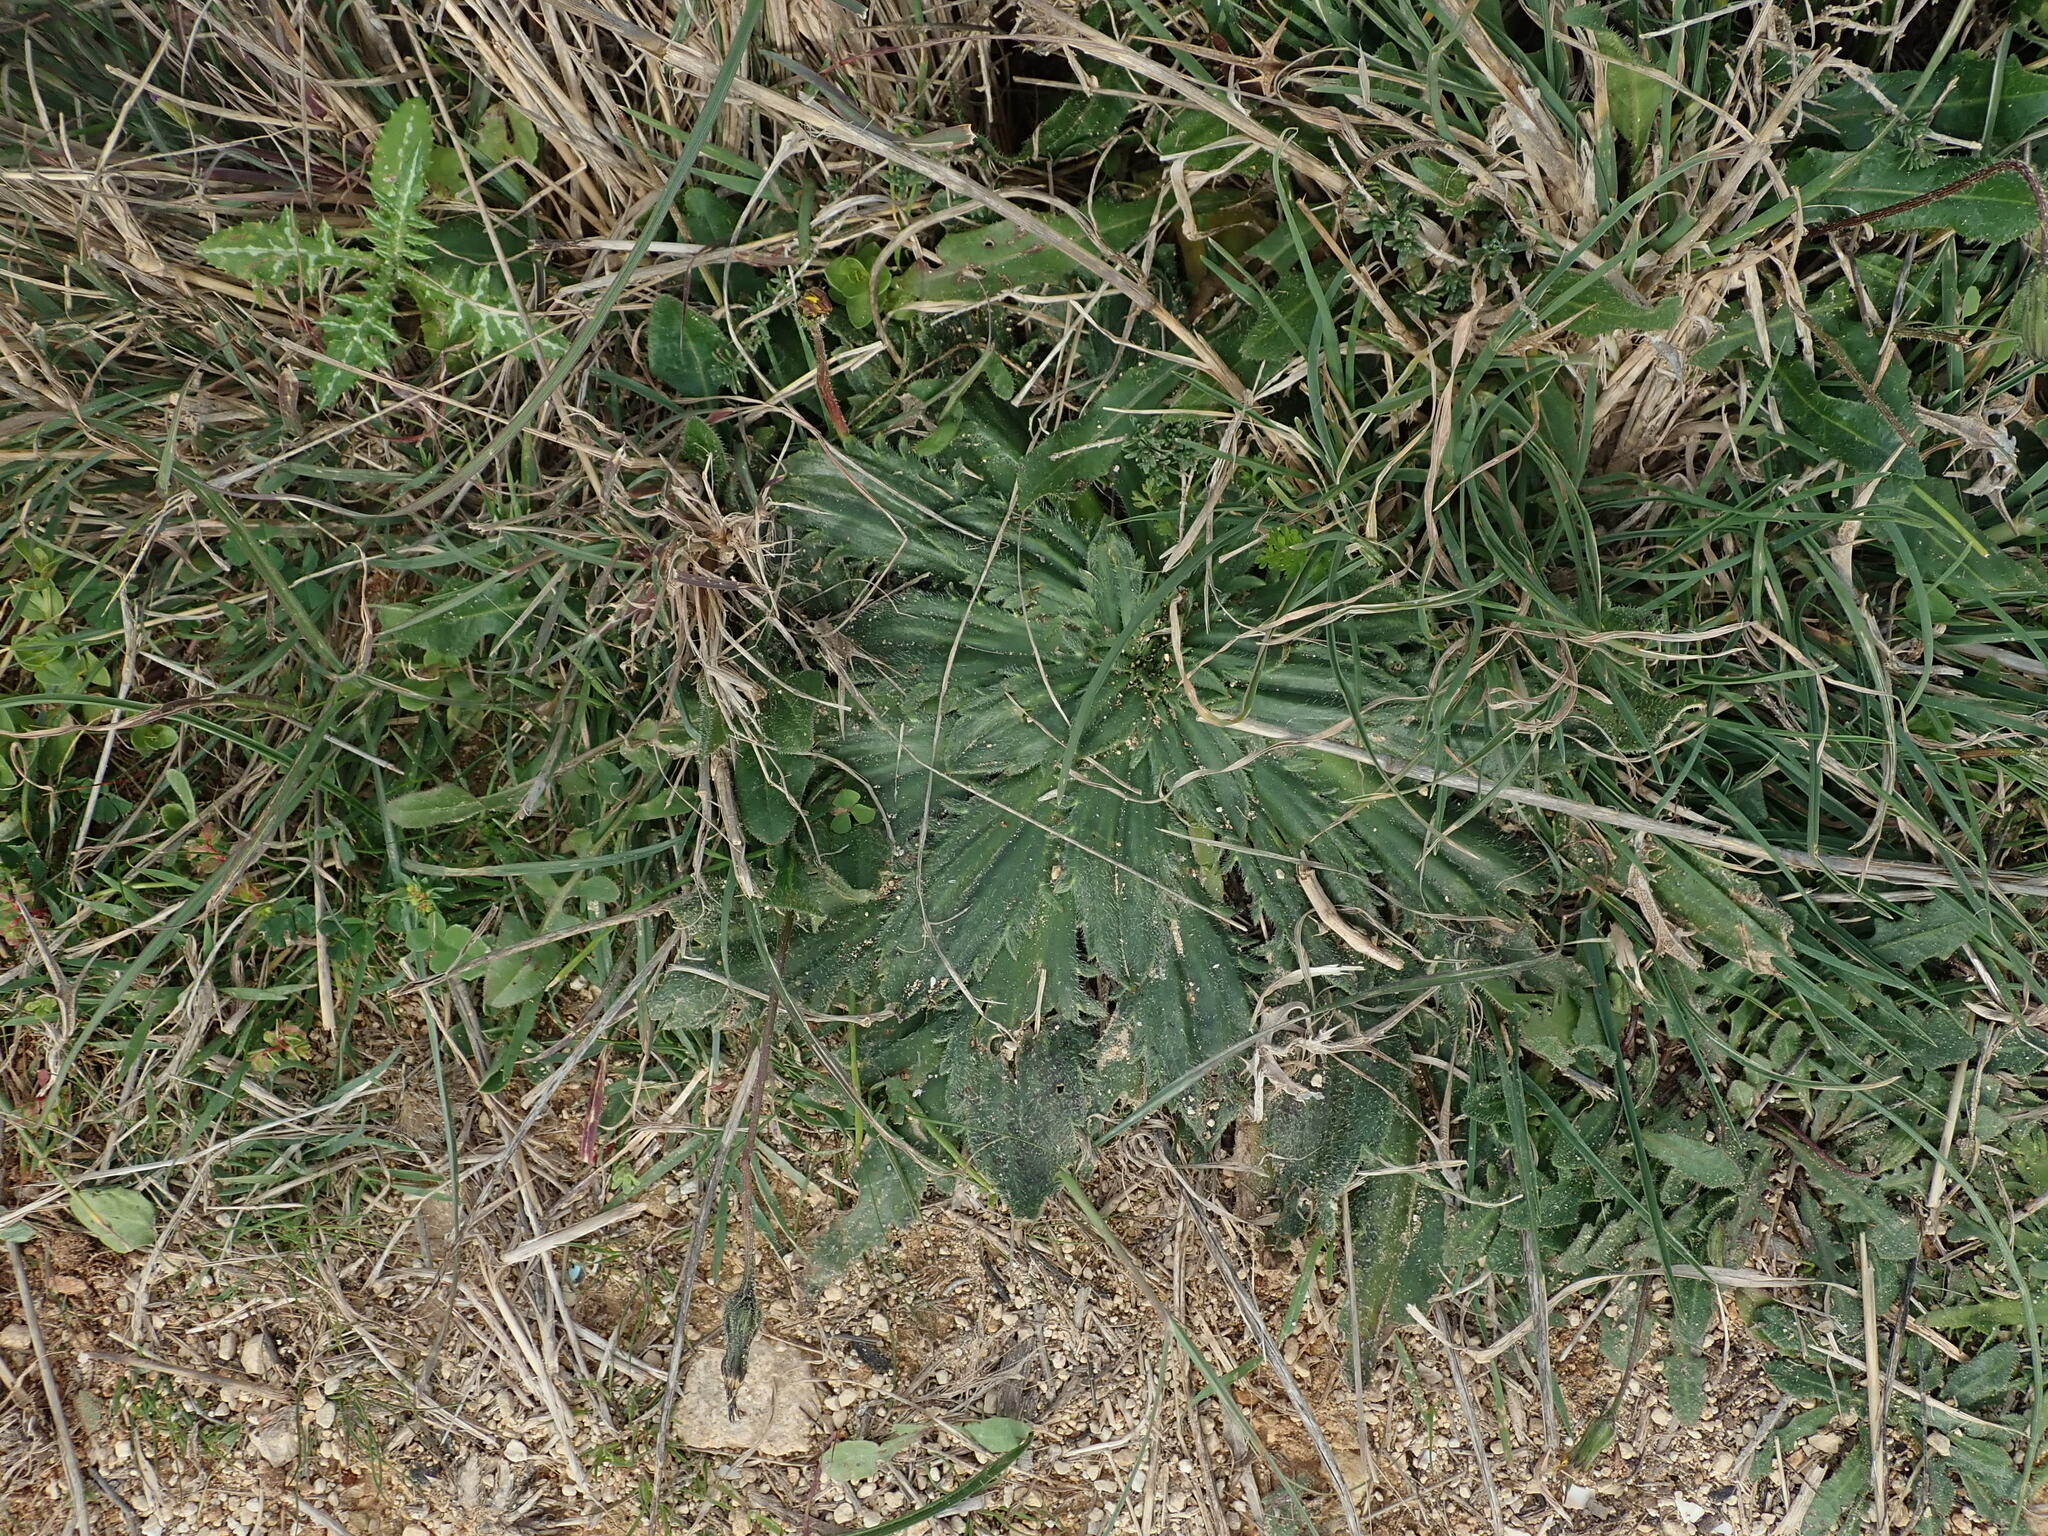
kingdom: Plantae
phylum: Tracheophyta
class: Magnoliopsida
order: Lamiales
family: Plantaginaceae
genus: Plantago
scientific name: Plantago serraria
